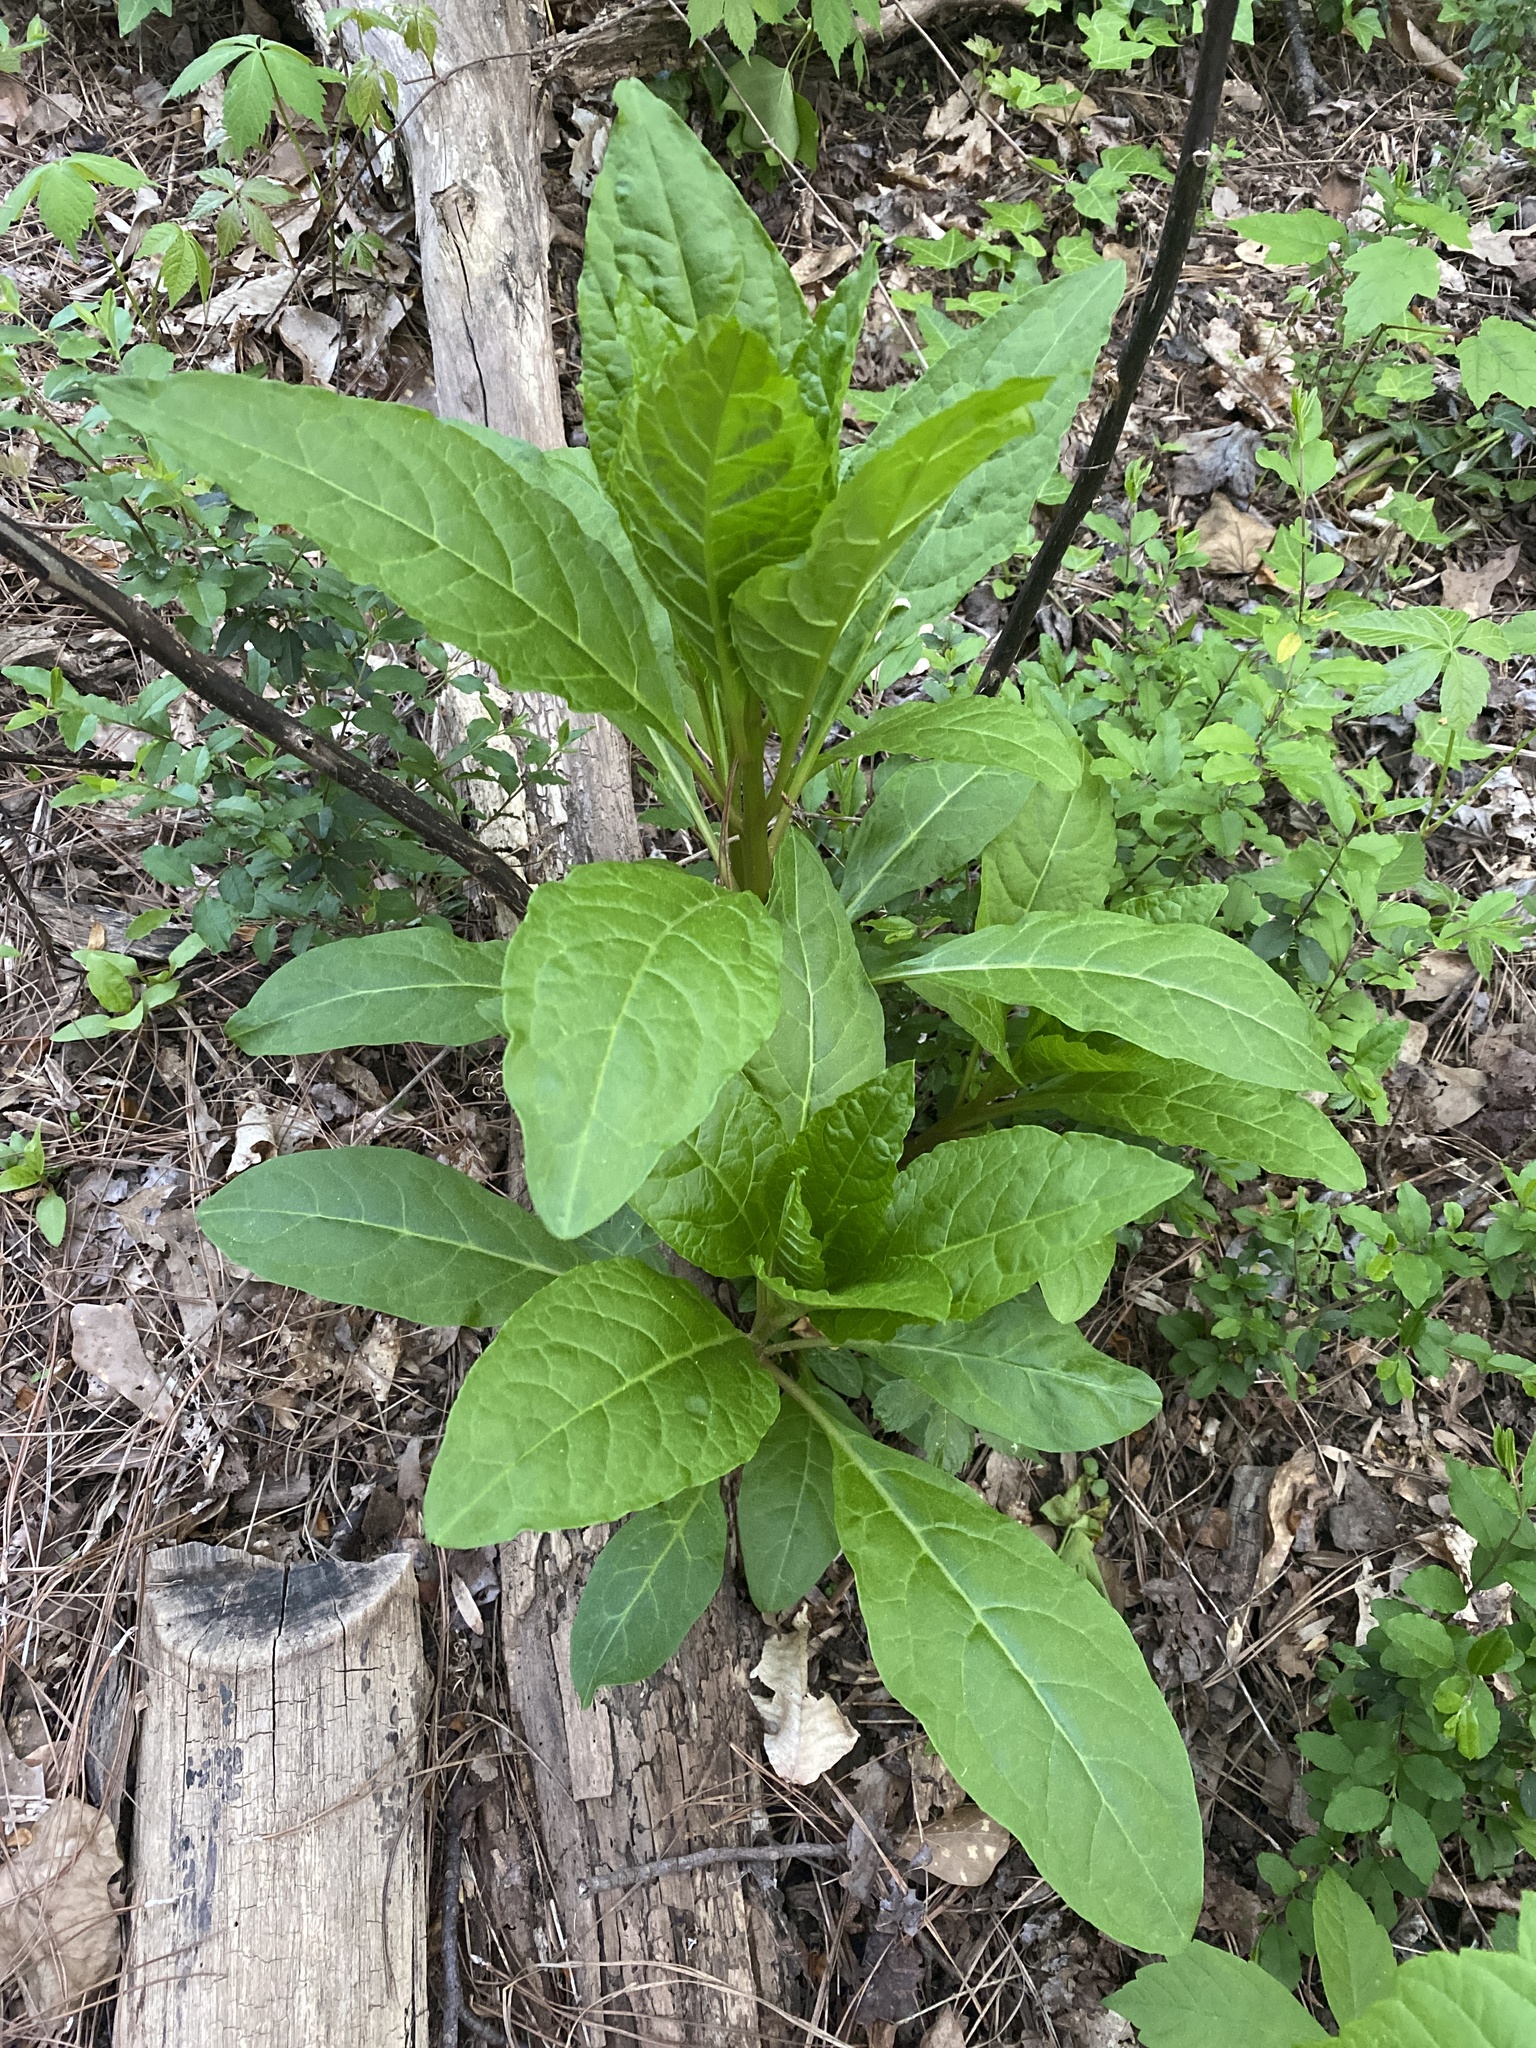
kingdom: Plantae
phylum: Tracheophyta
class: Magnoliopsida
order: Caryophyllales
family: Phytolaccaceae
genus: Phytolacca
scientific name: Phytolacca americana
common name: American pokeweed
